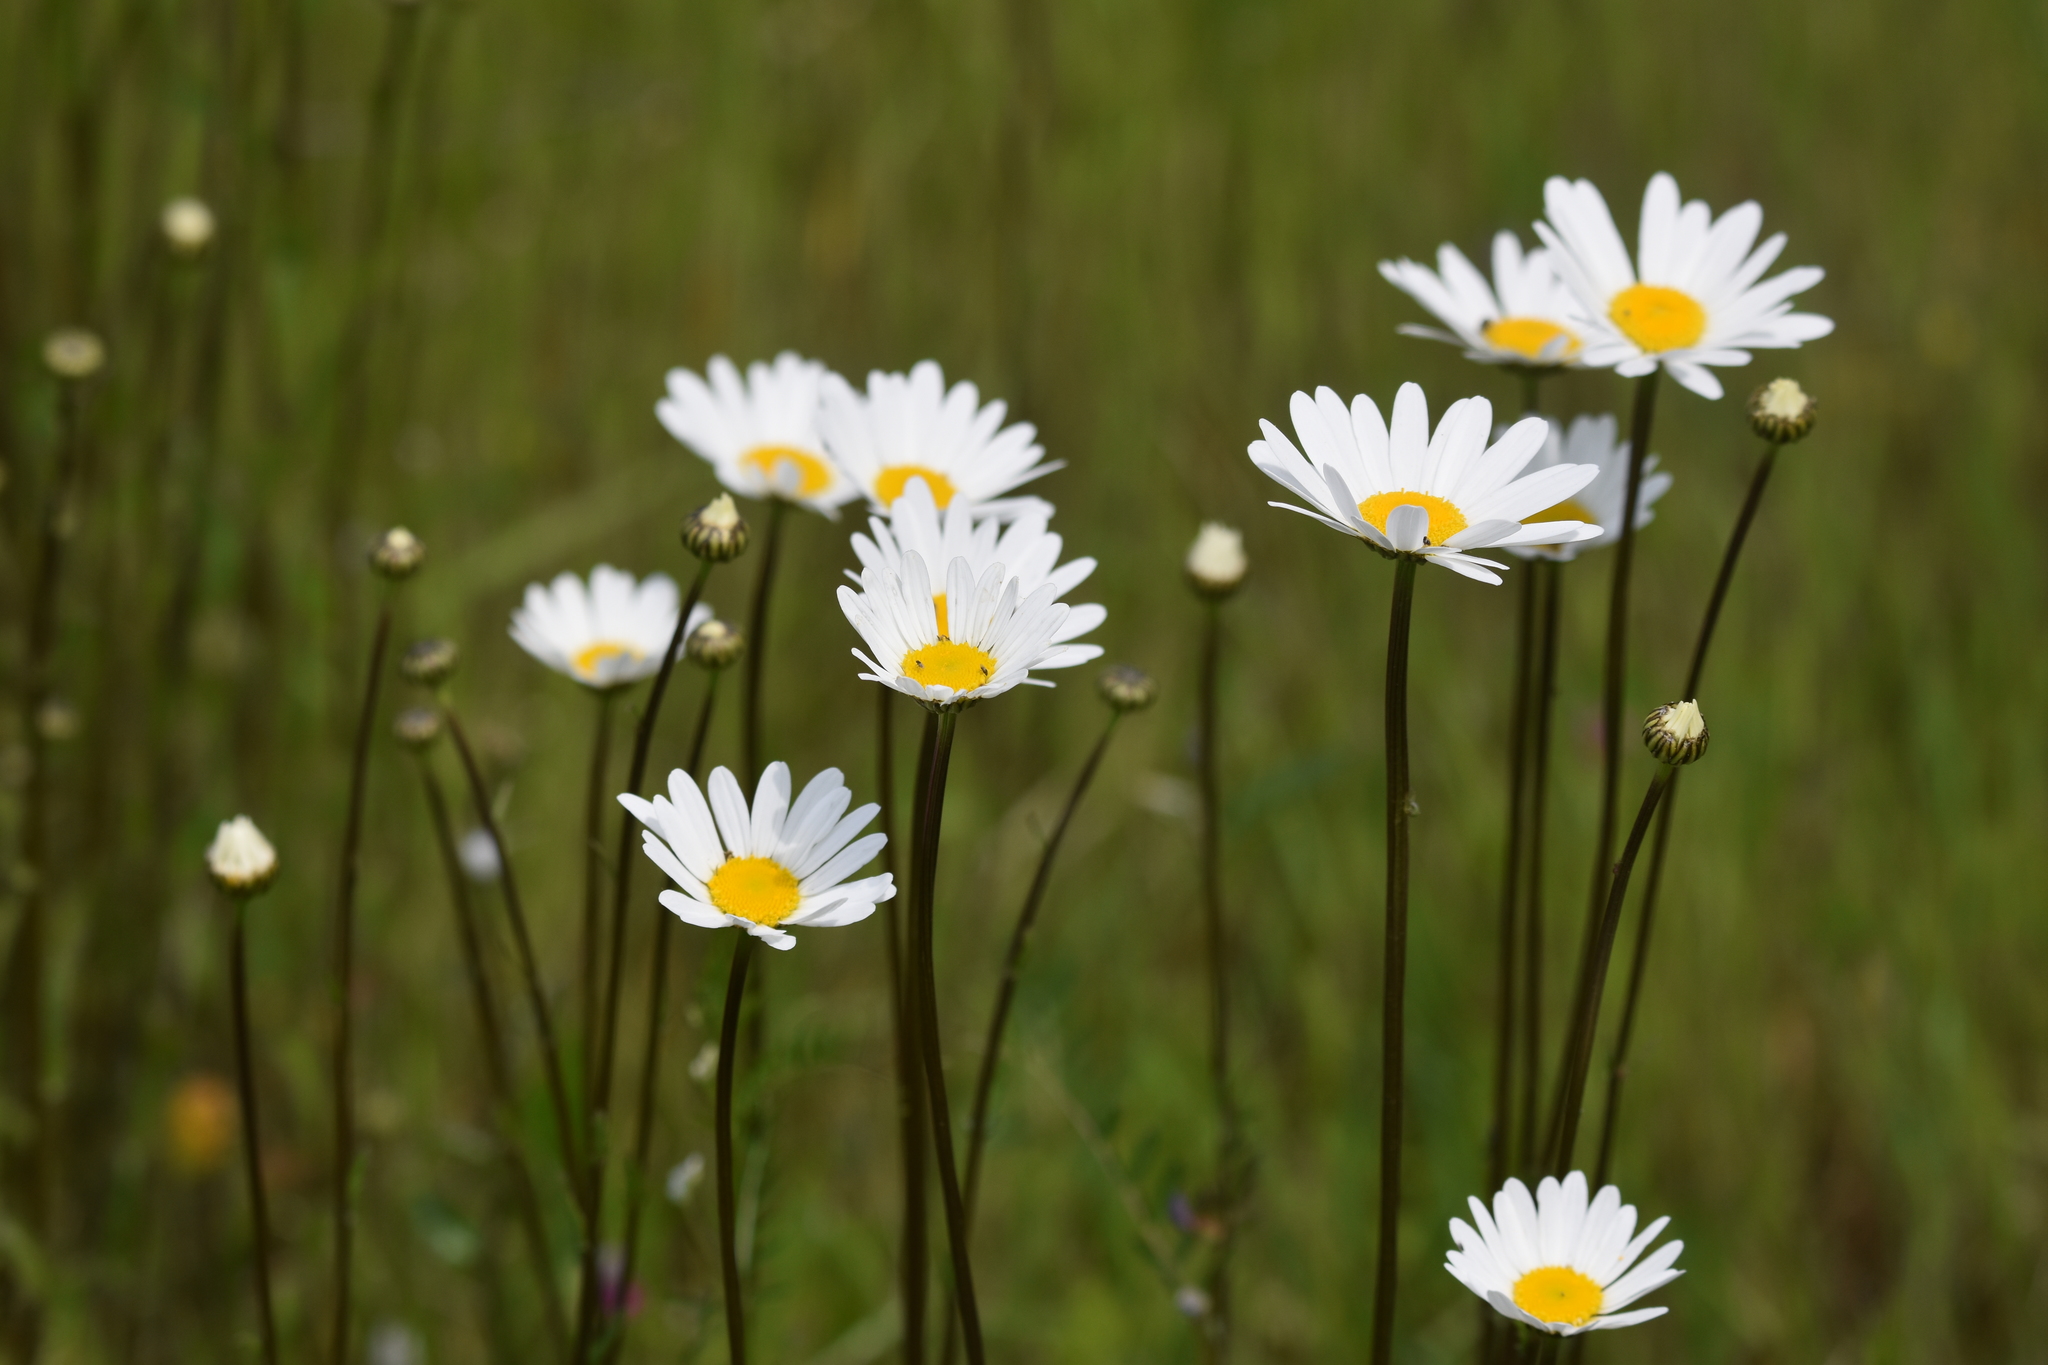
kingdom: Plantae
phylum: Tracheophyta
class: Magnoliopsida
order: Asterales
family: Asteraceae
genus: Leucanthemum
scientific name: Leucanthemum vulgare
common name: Oxeye daisy
